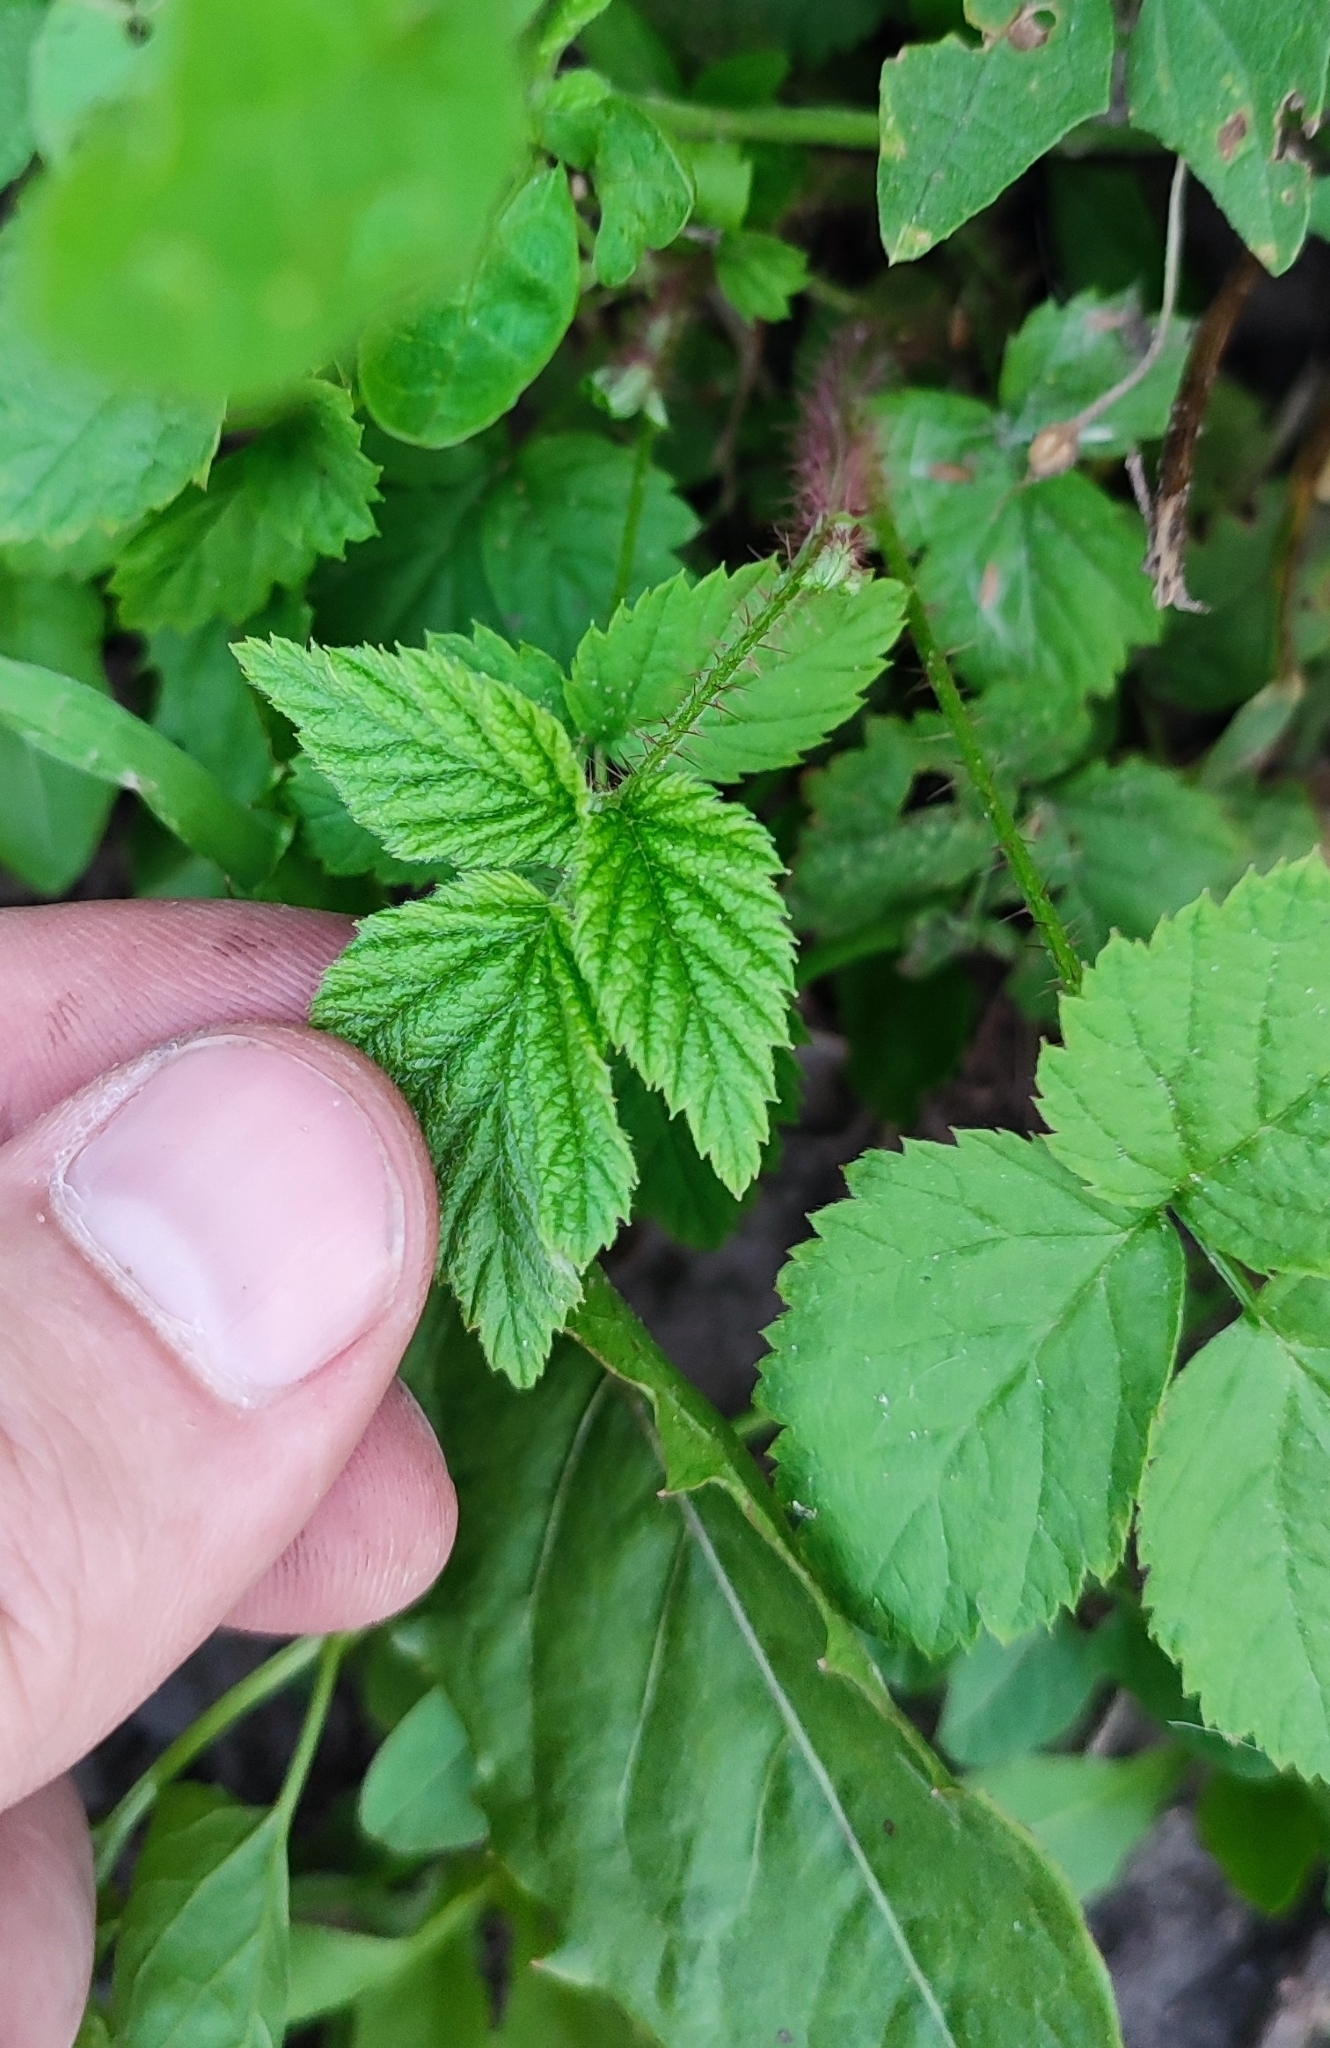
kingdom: Plantae
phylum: Tracheophyta
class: Magnoliopsida
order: Rosales
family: Rosaceae
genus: Rubus
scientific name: Rubus idaeus
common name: Raspberry
